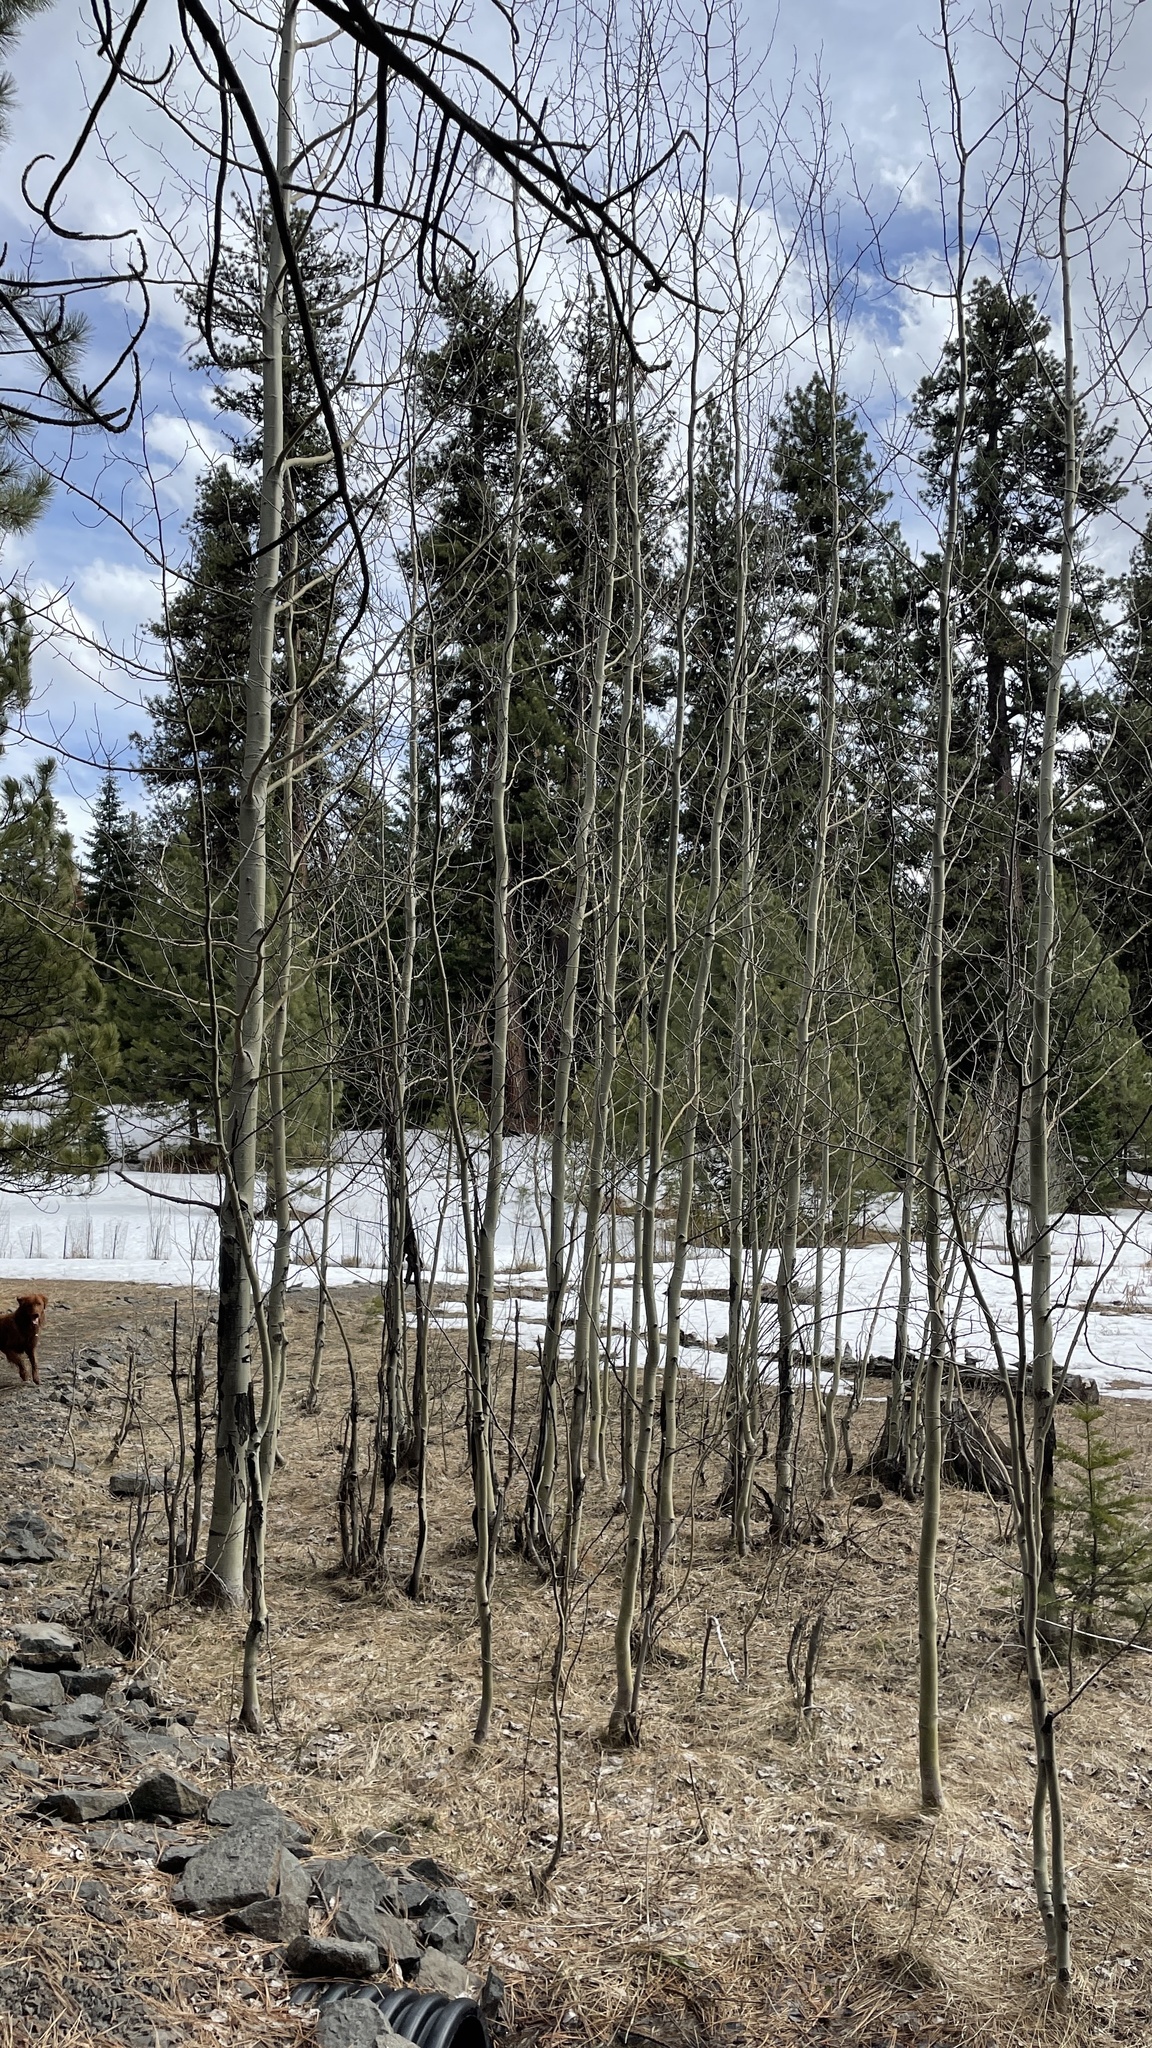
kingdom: Plantae
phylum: Tracheophyta
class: Magnoliopsida
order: Malpighiales
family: Salicaceae
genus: Populus
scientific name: Populus tremuloides
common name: Quaking aspen
